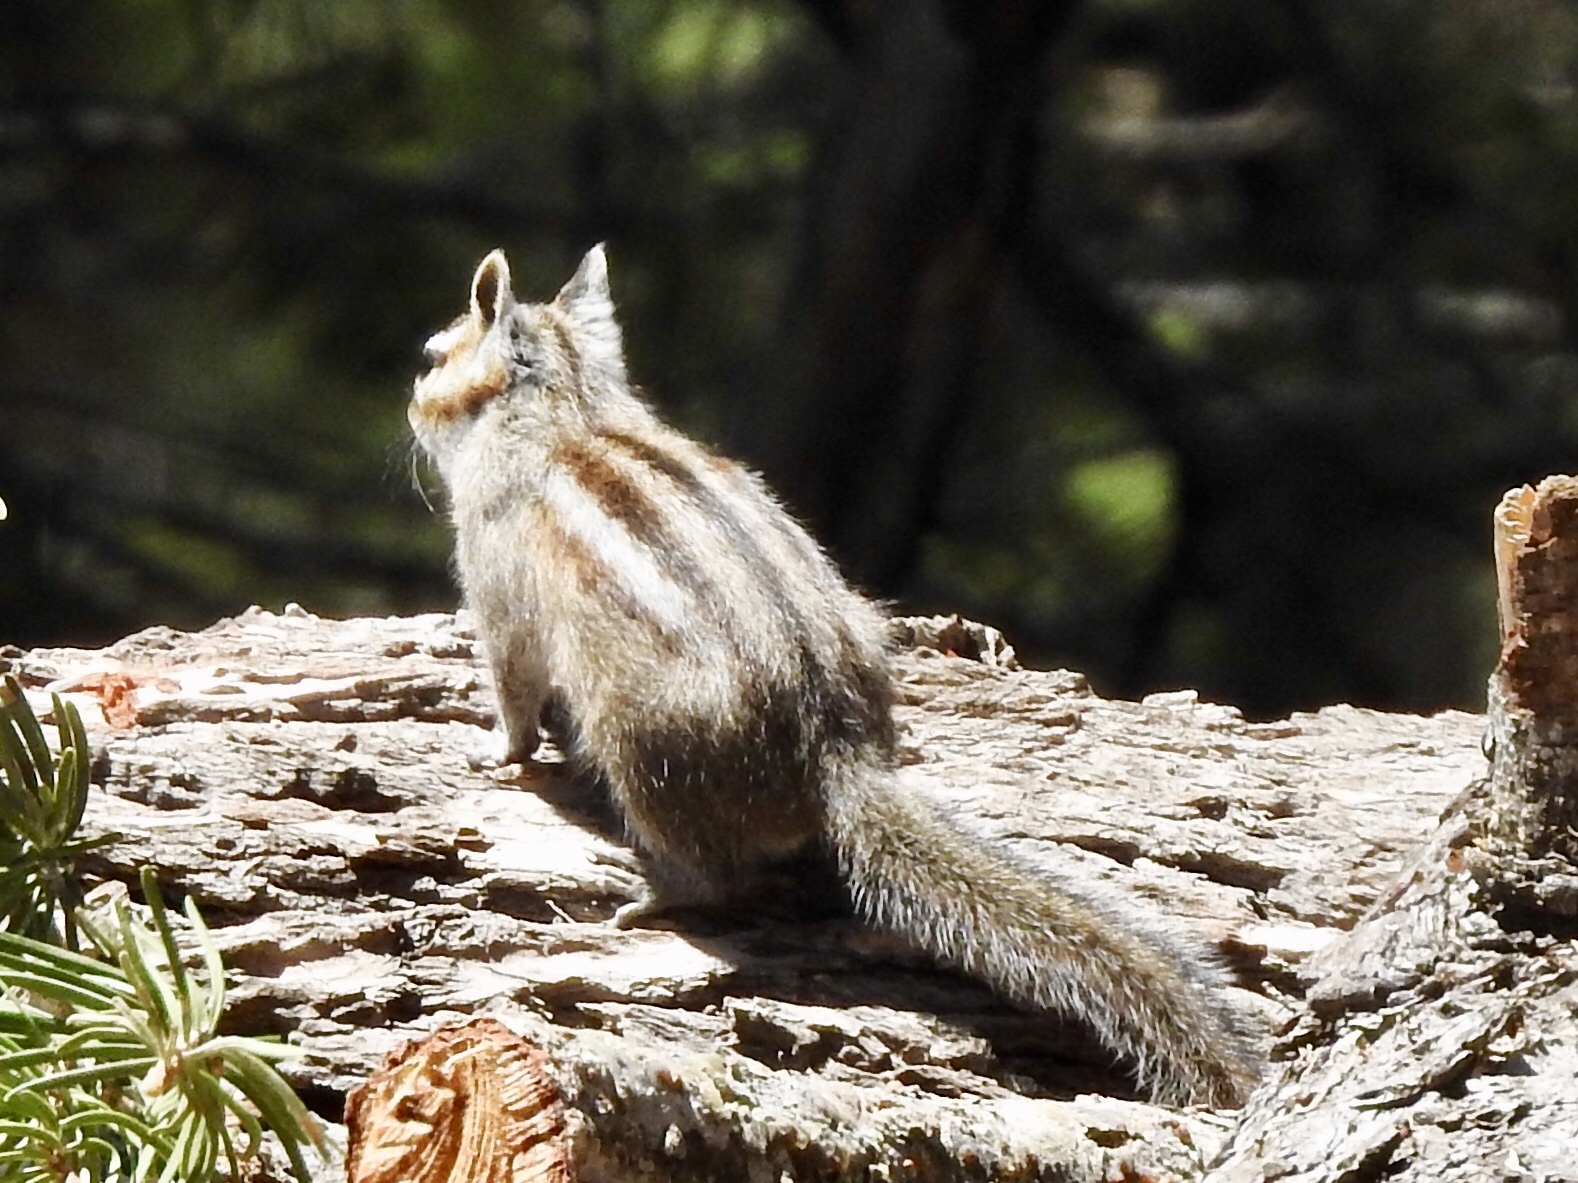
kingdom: Animalia
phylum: Chordata
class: Mammalia
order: Rodentia
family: Sciuridae
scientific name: Sciuridae
